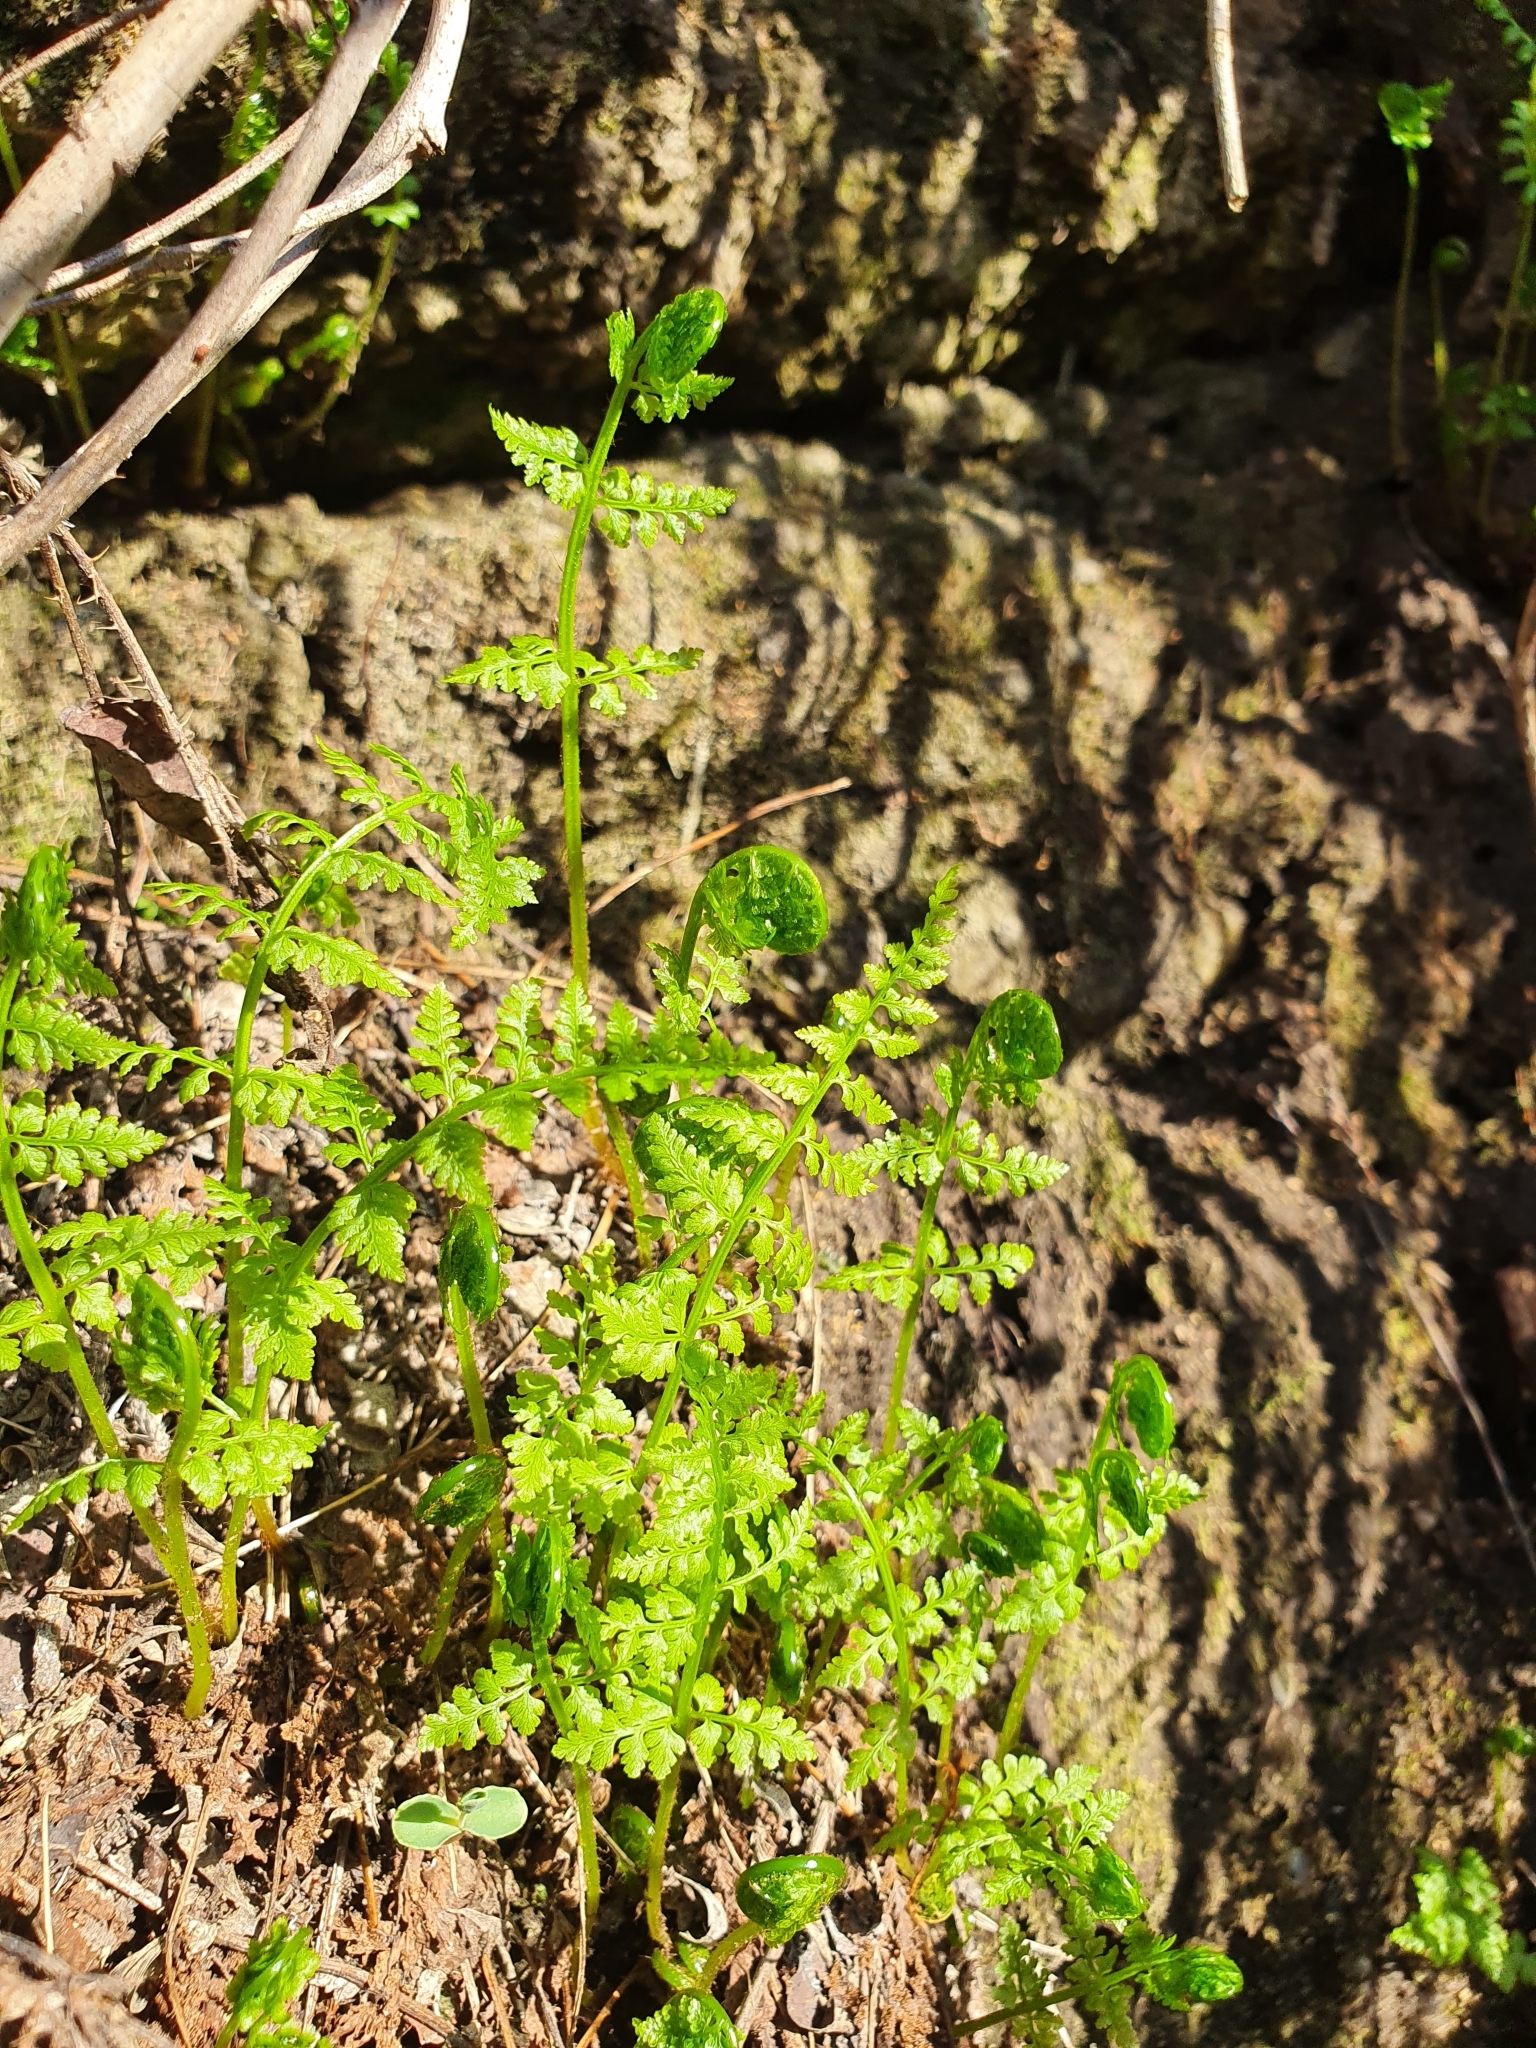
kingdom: Plantae
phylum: Tracheophyta
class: Polypodiopsida
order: Polypodiales
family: Cystopteridaceae
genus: Cystopteris
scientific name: Cystopteris fragilis
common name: Brittle bladder fern
